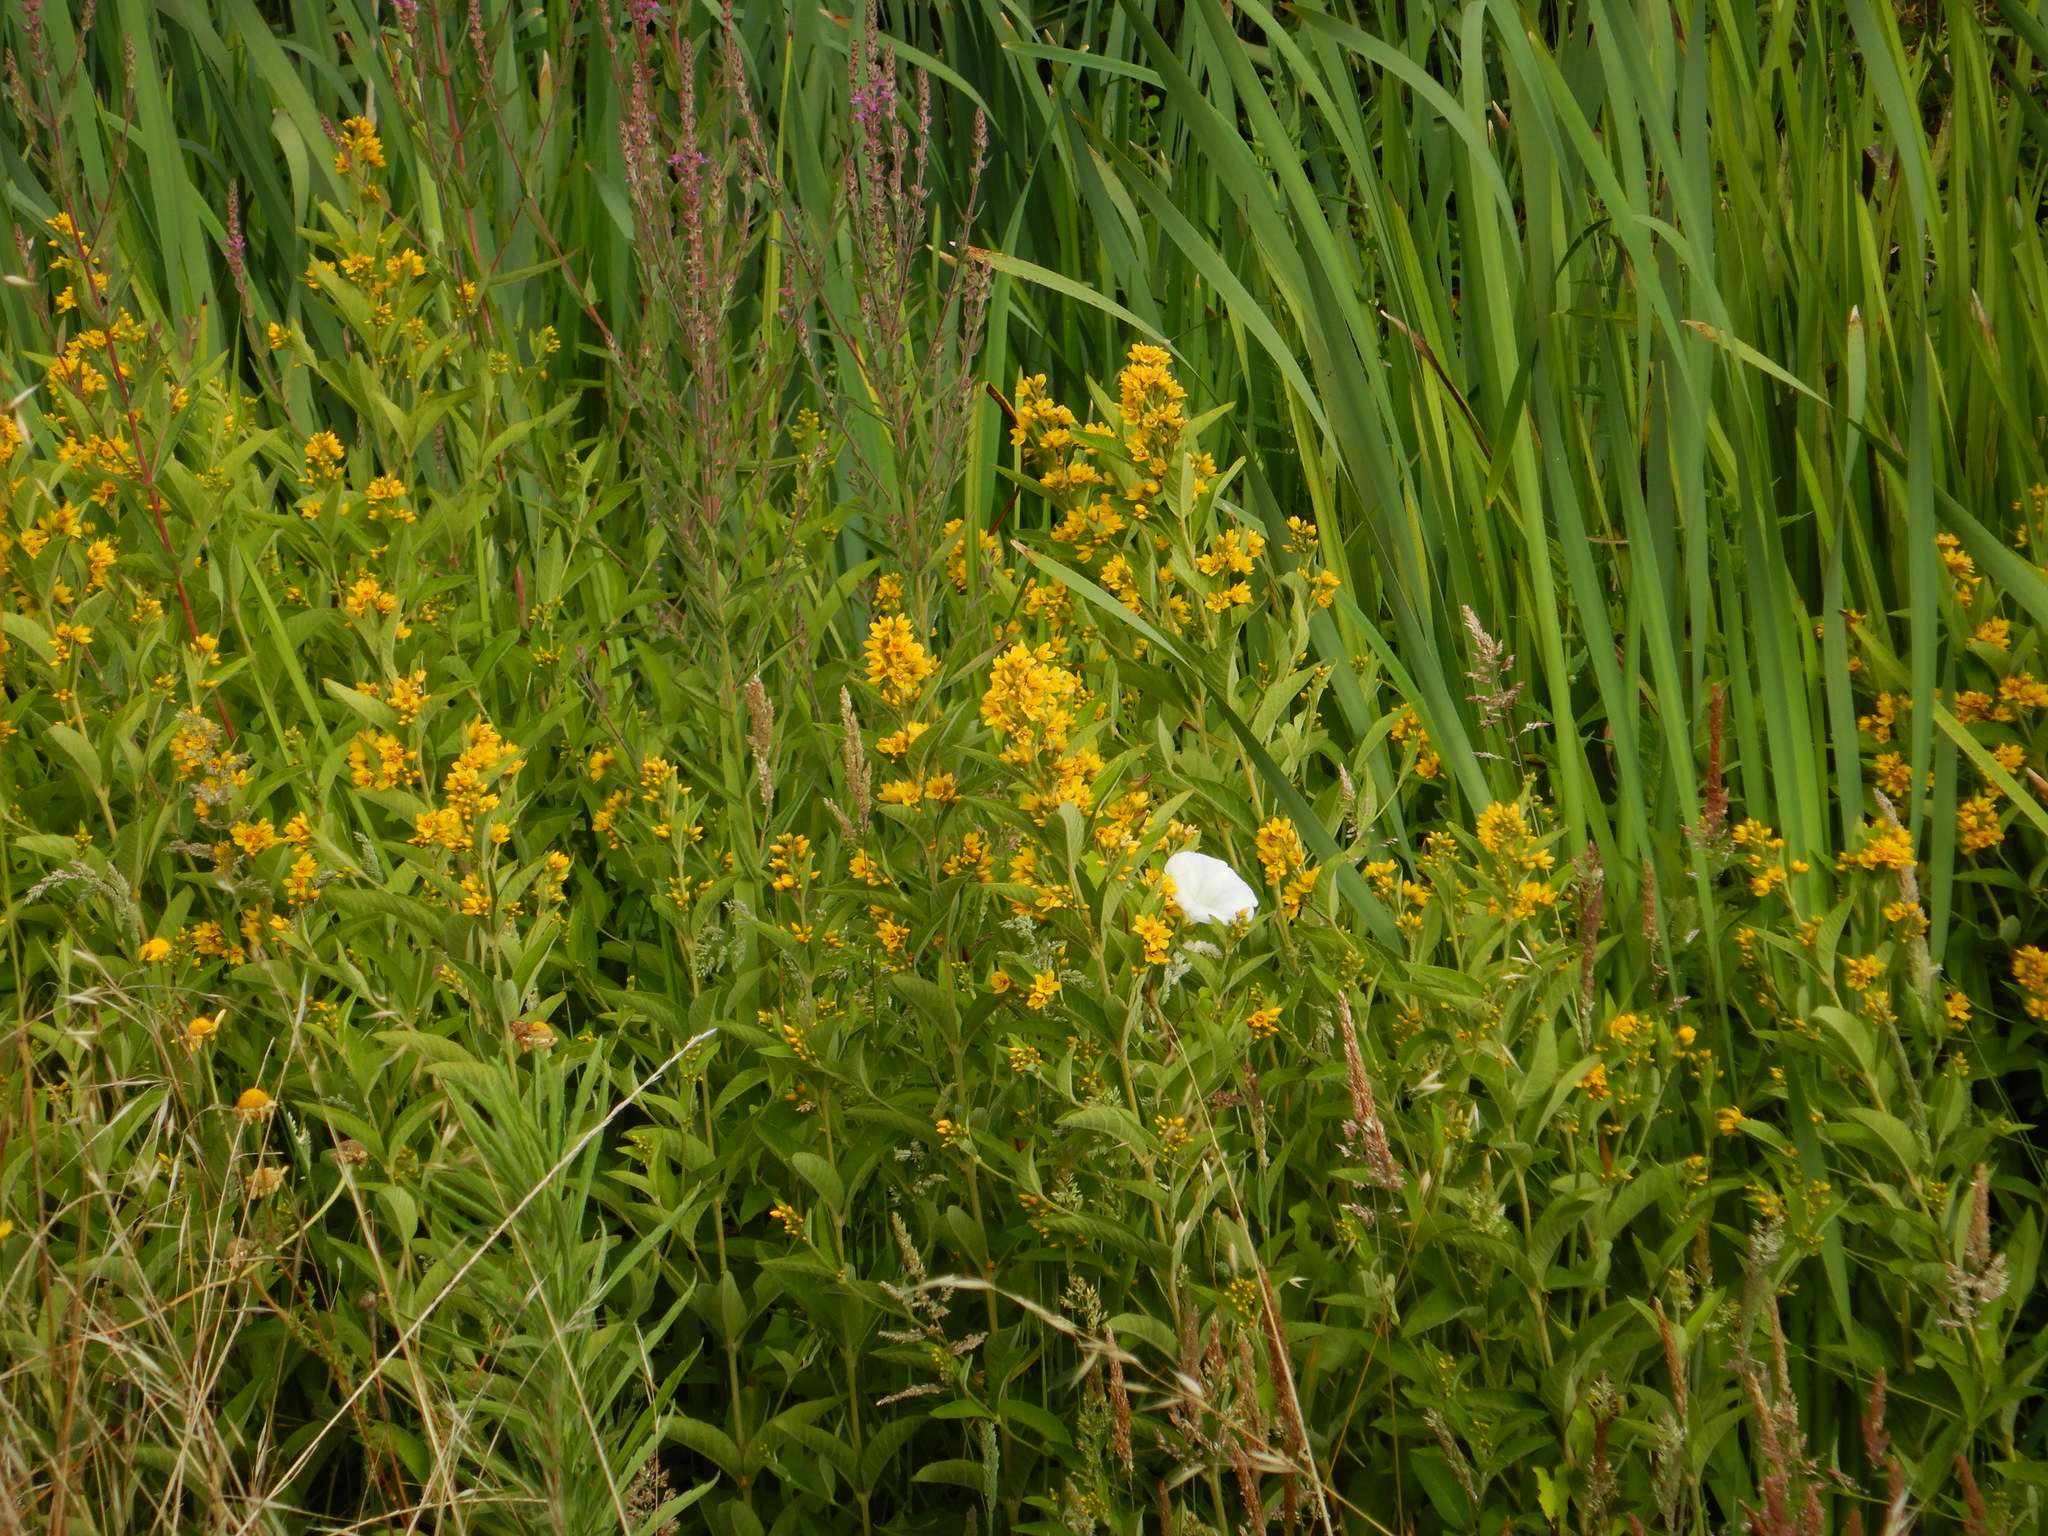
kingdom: Plantae
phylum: Tracheophyta
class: Magnoliopsida
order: Ericales
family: Primulaceae
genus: Lysimachia
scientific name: Lysimachia vulgaris
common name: Yellow loosestrife
